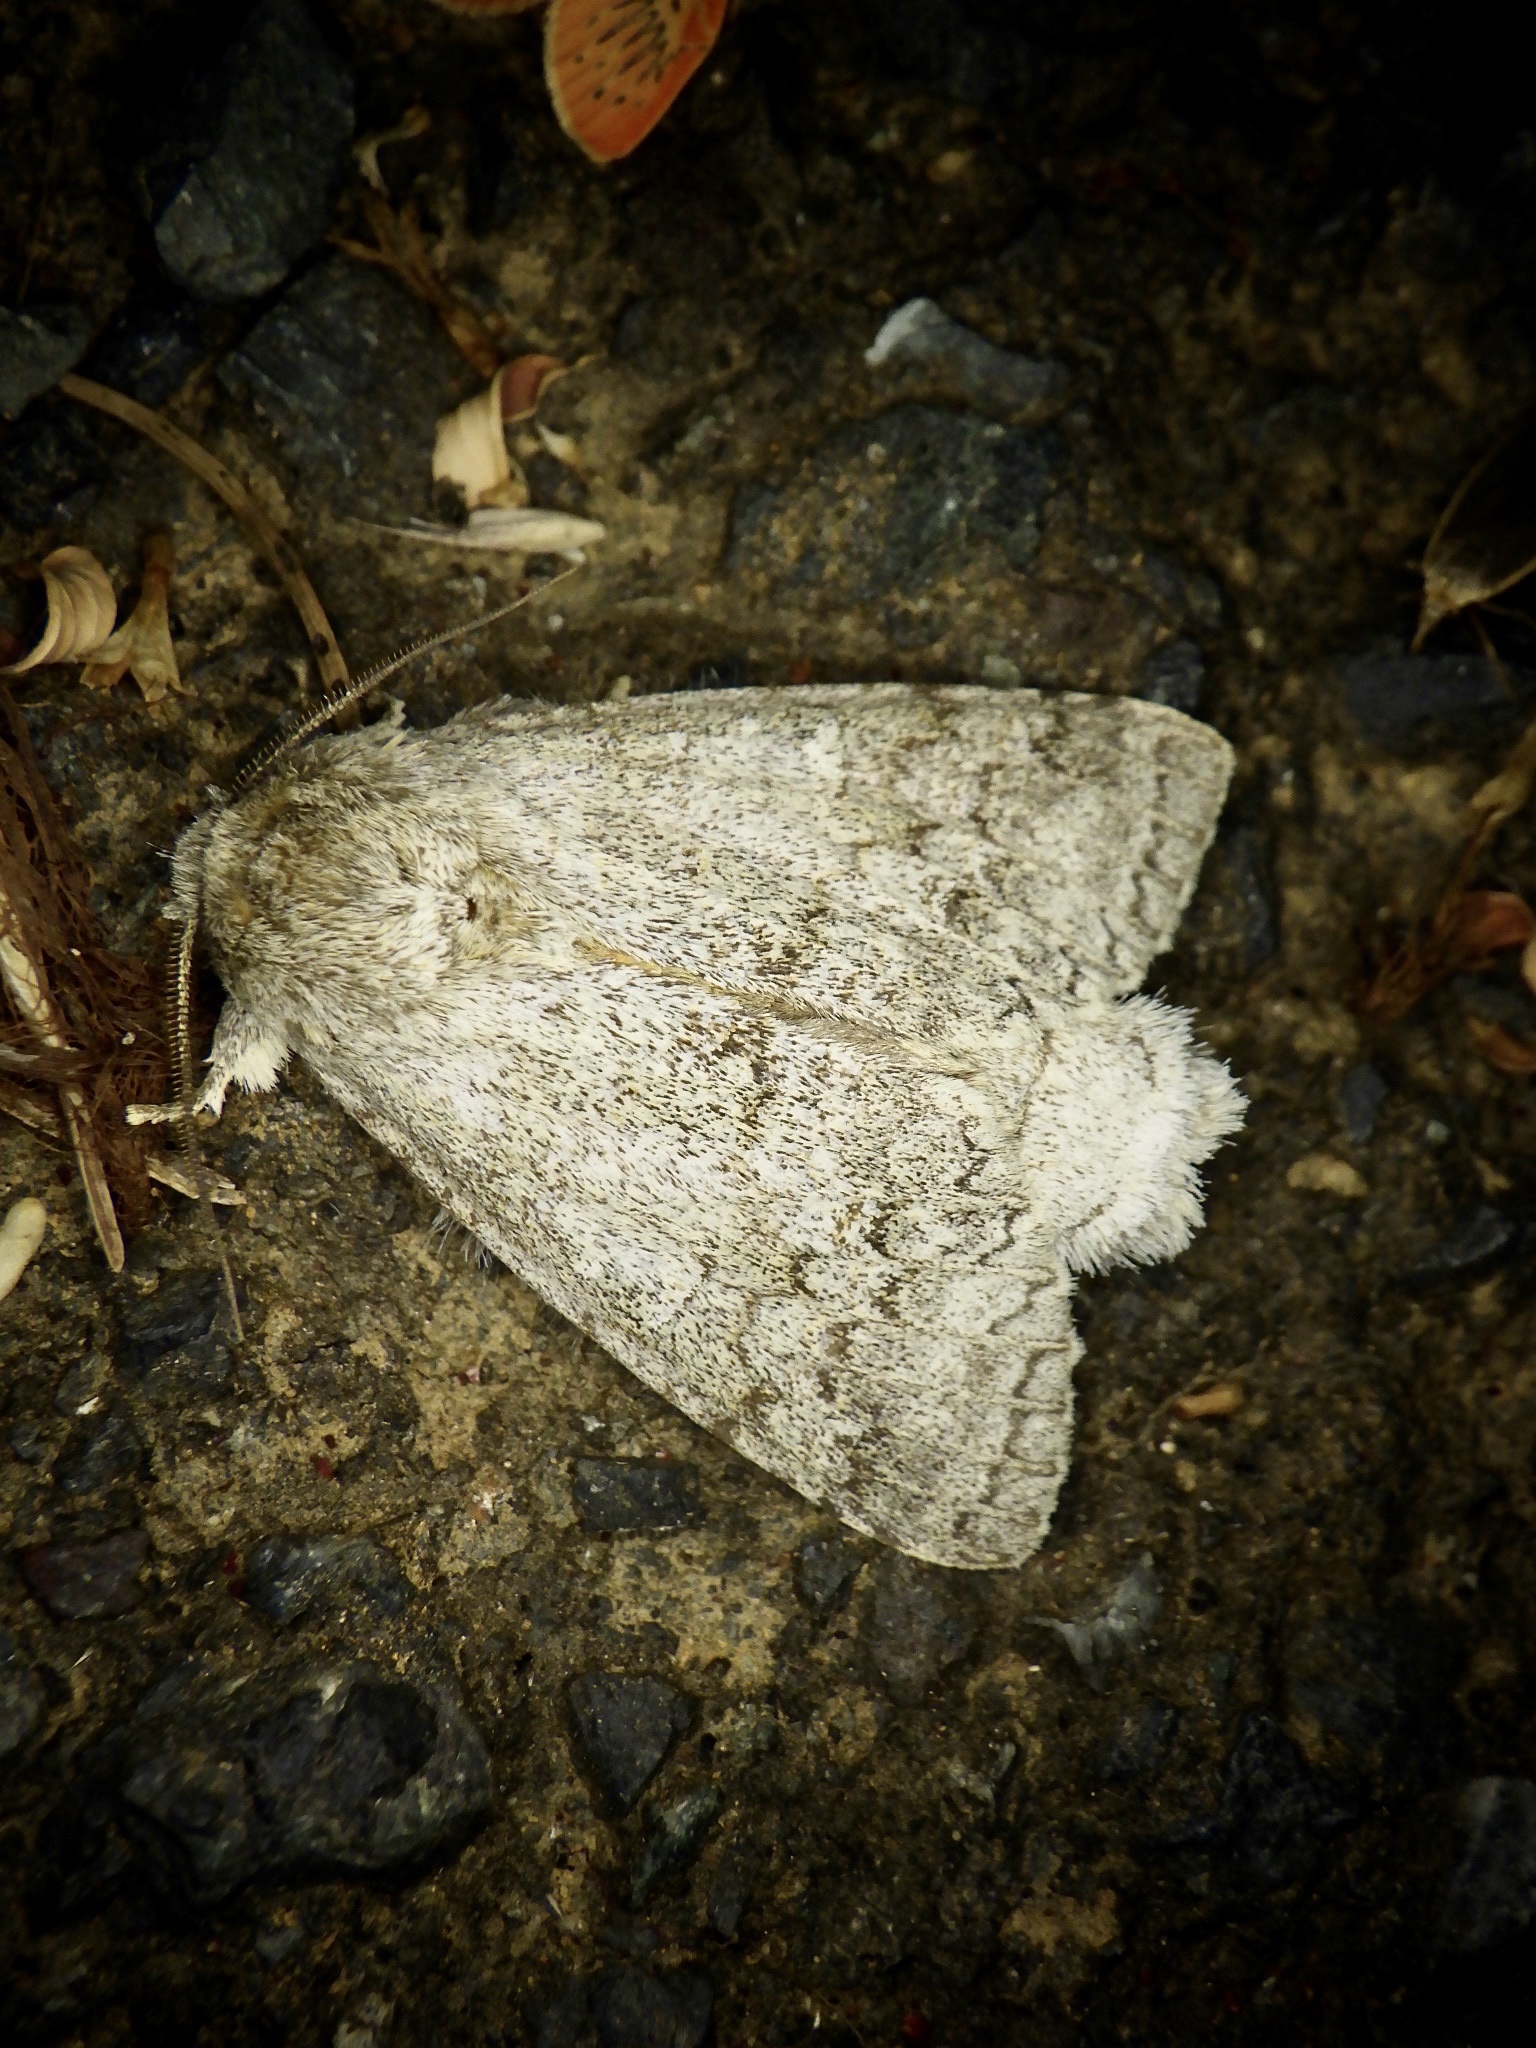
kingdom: Animalia
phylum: Arthropoda
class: Insecta
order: Lepidoptera
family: Notodontidae
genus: Mesophalera
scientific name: Mesophalera sigmata
